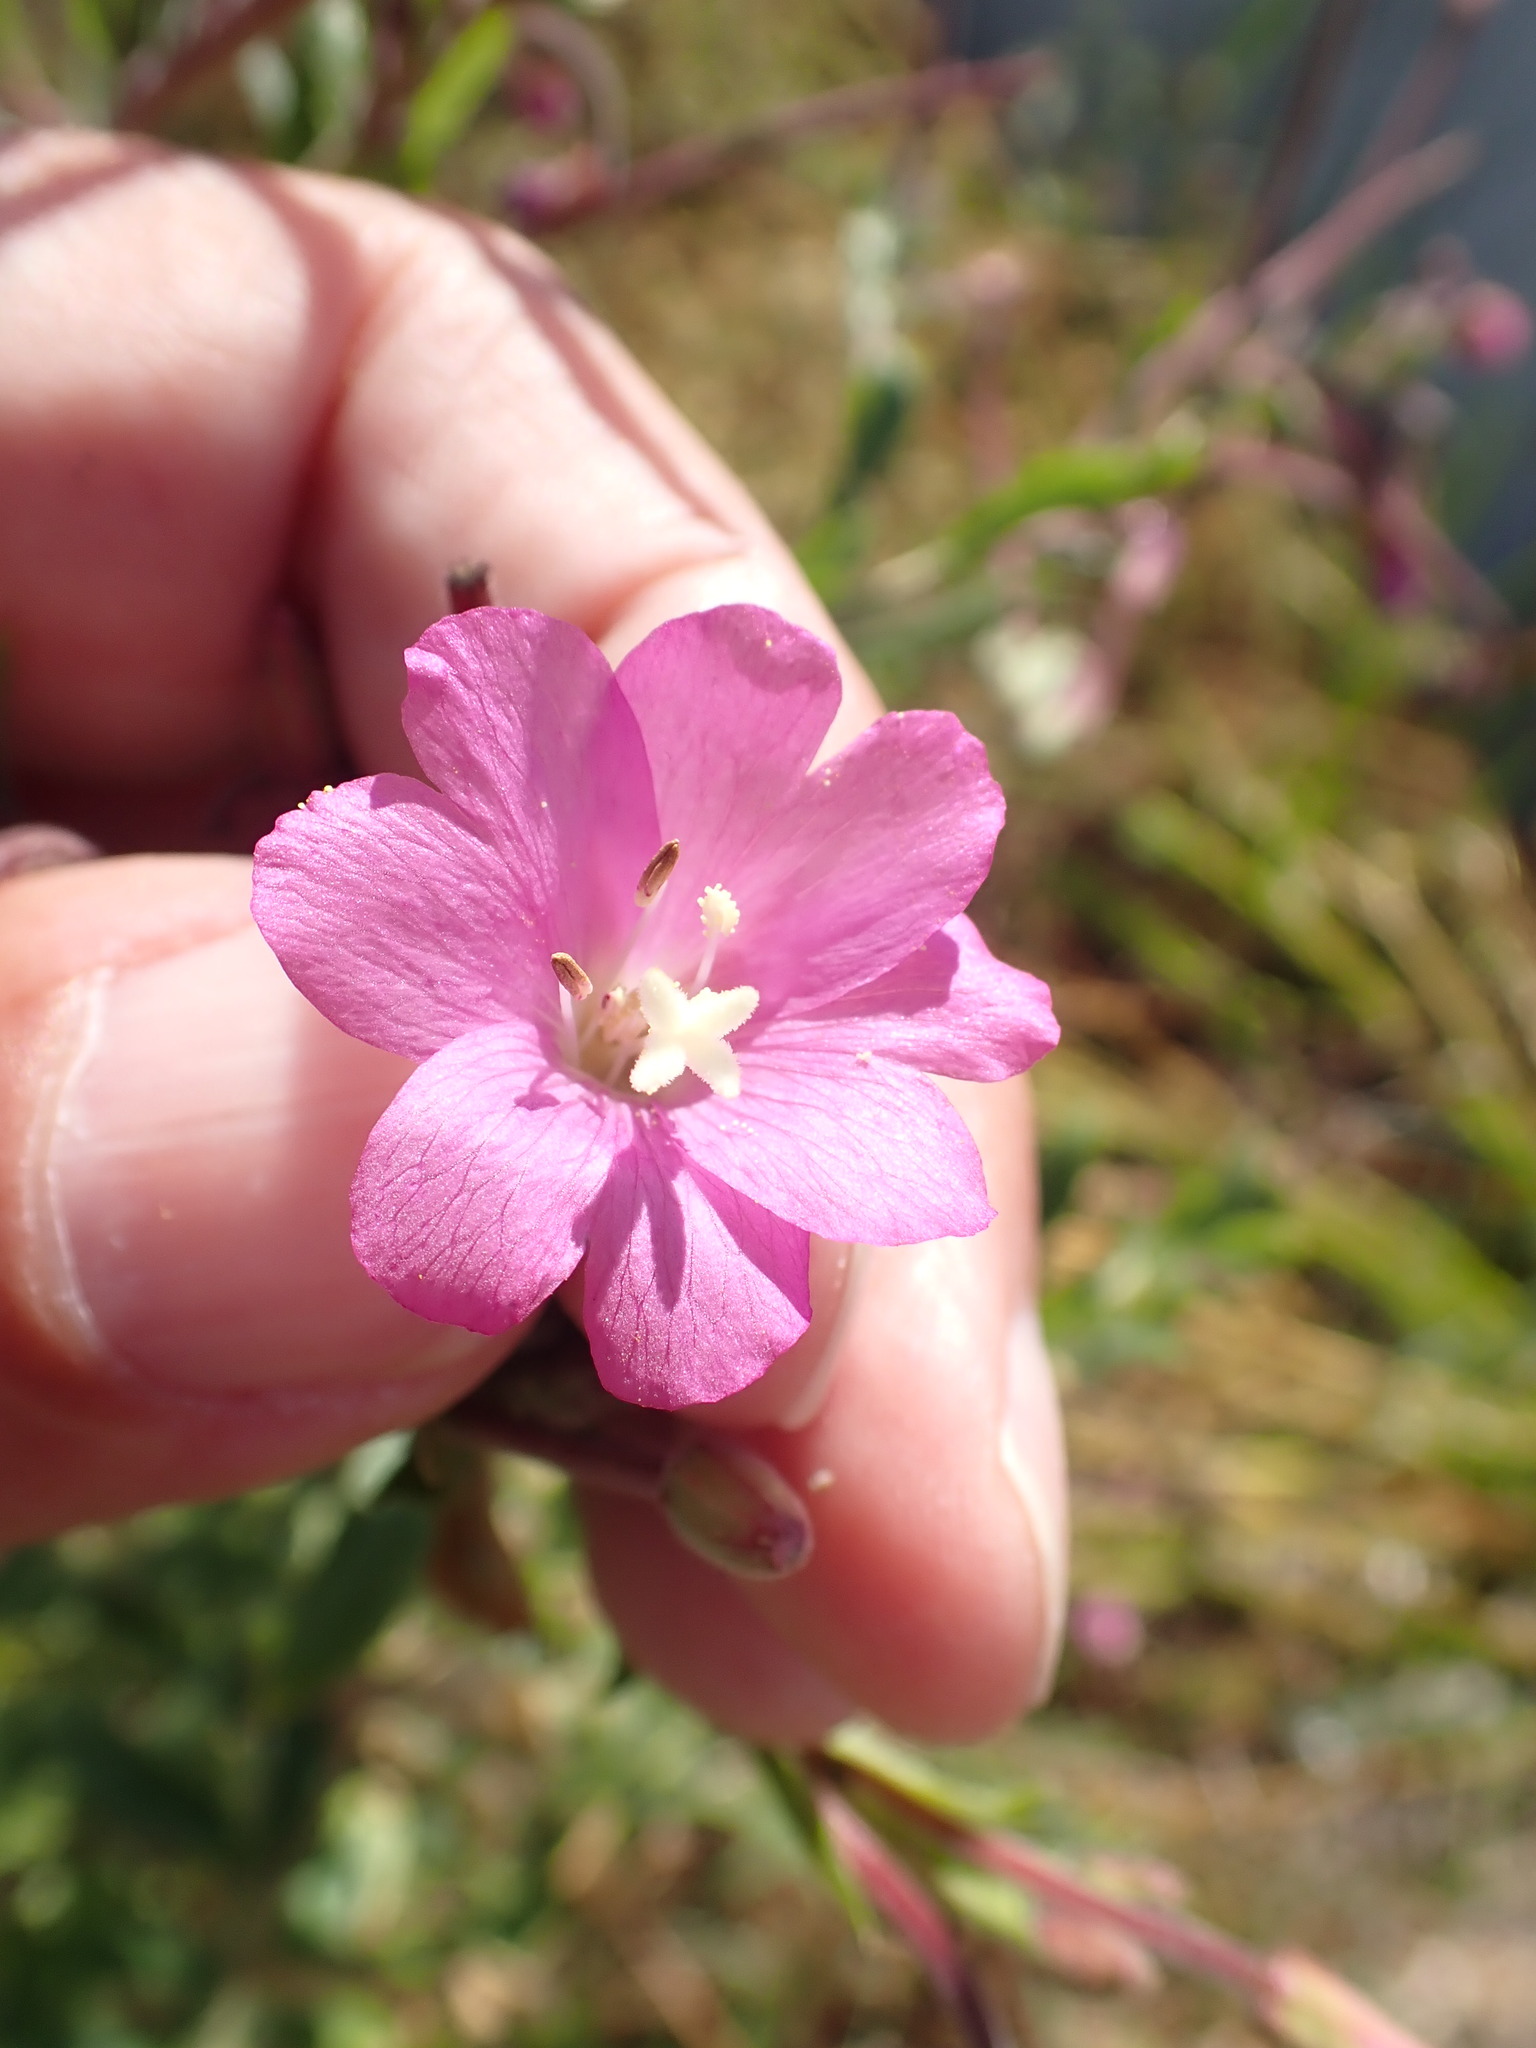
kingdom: Plantae
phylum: Tracheophyta
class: Magnoliopsida
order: Myrtales
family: Onagraceae
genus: Epilobium
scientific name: Epilobium hirsutum
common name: Great willowherb
